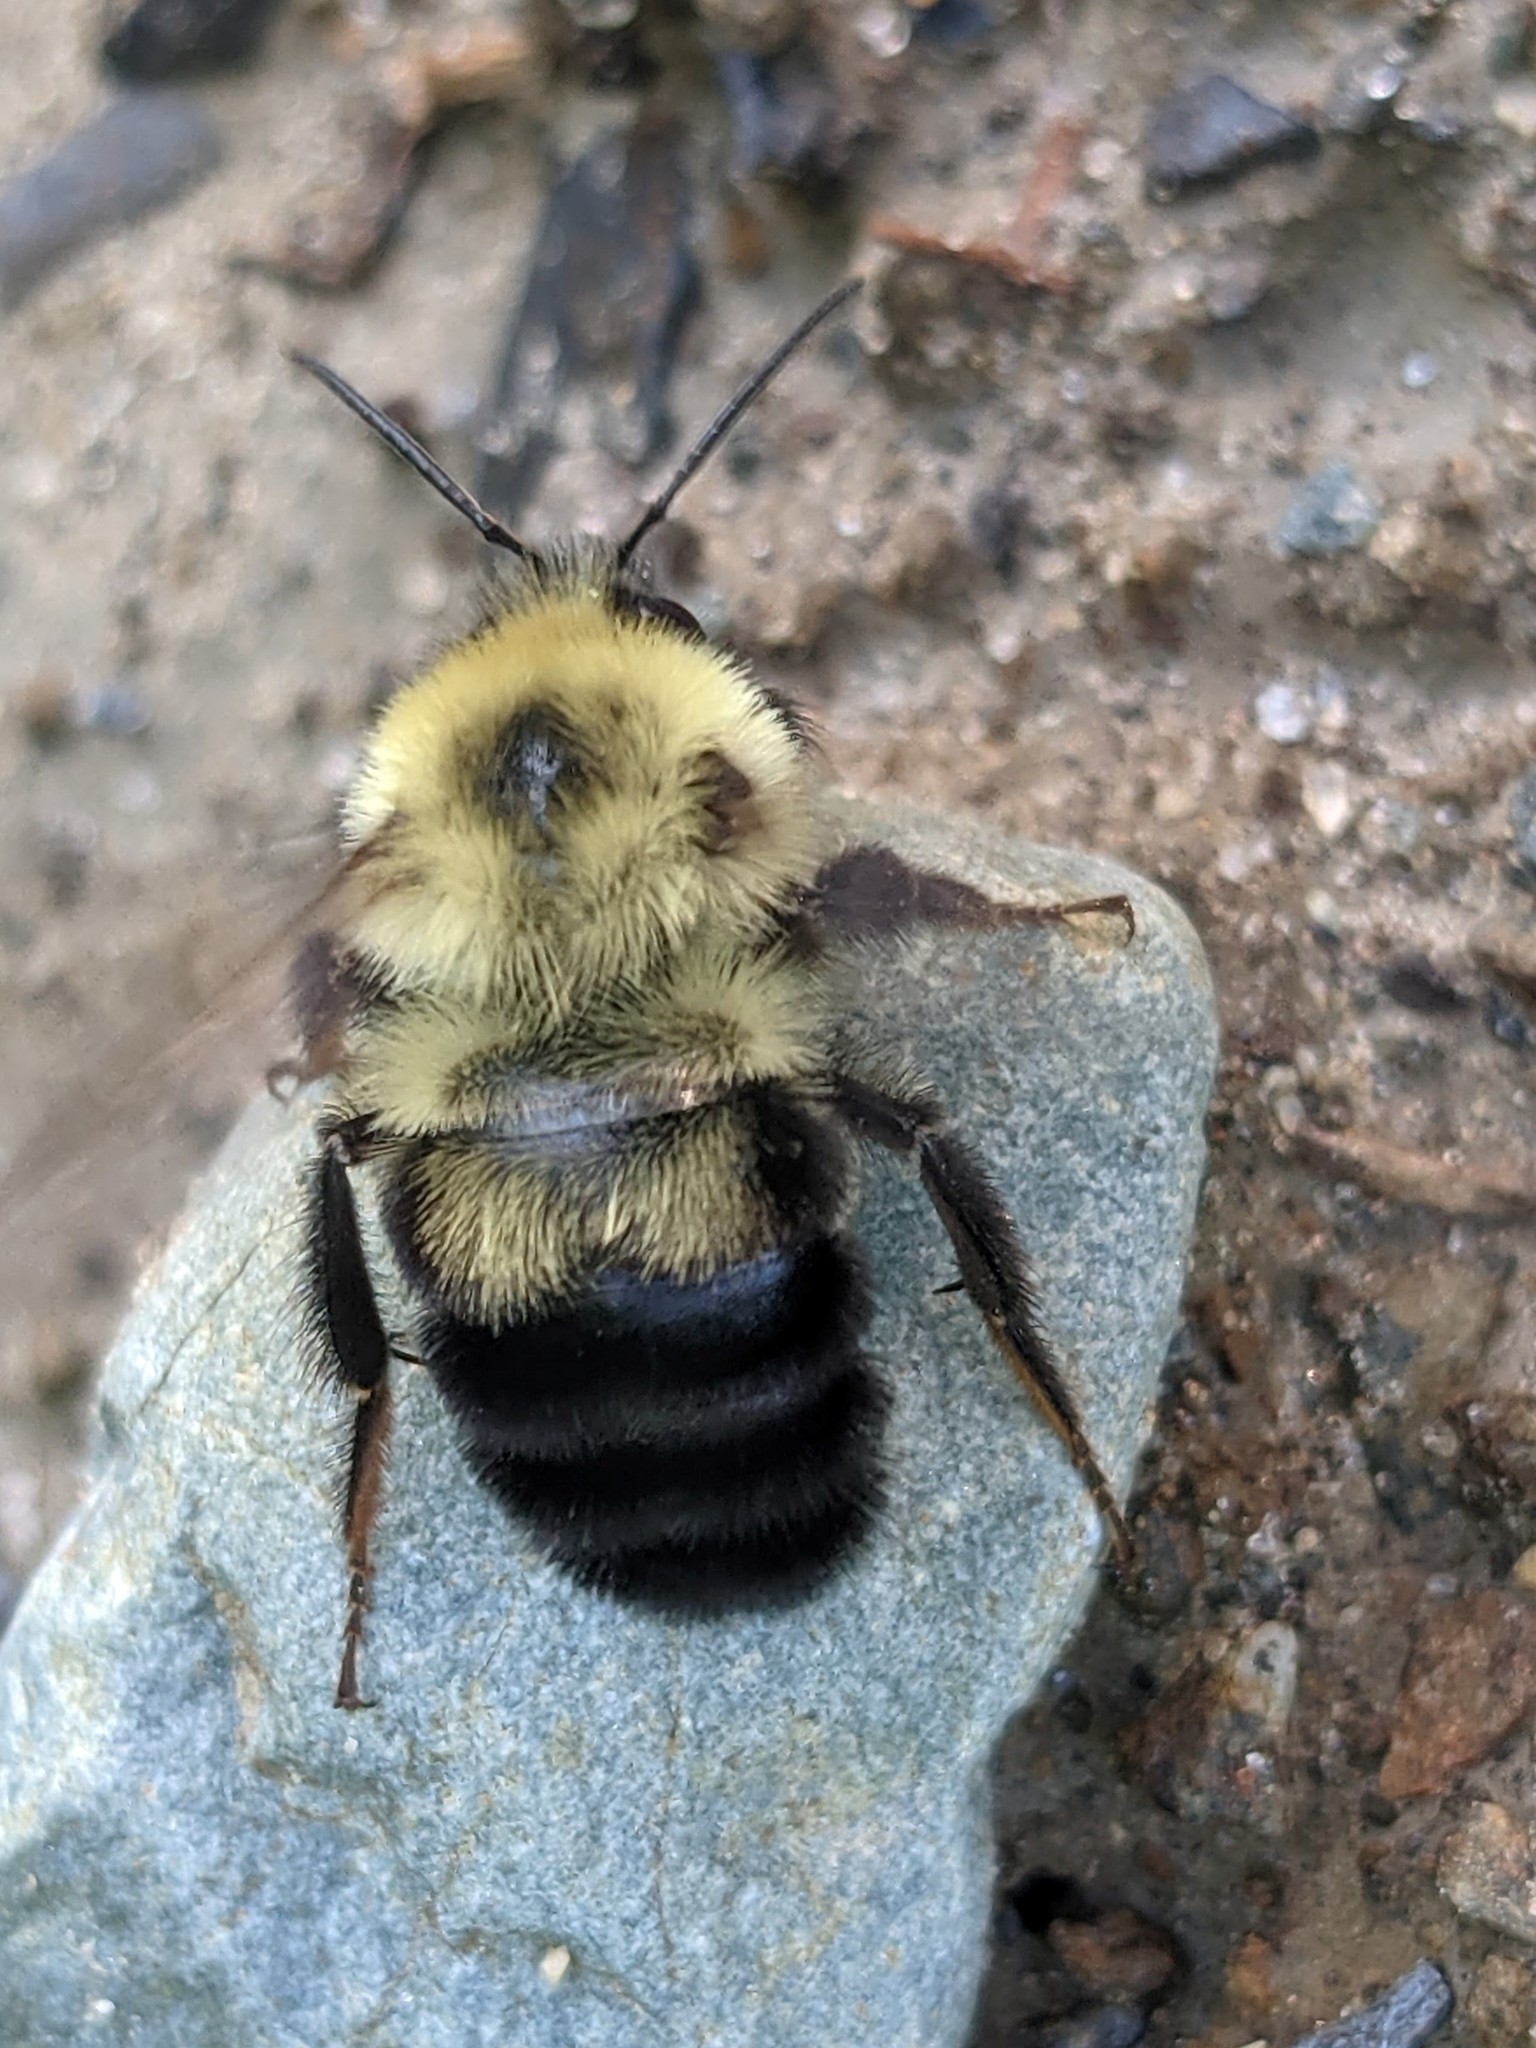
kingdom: Animalia
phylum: Arthropoda
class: Insecta
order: Hymenoptera
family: Apidae
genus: Bombus
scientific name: Bombus bimaculatus
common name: Two-spotted bumble bee
